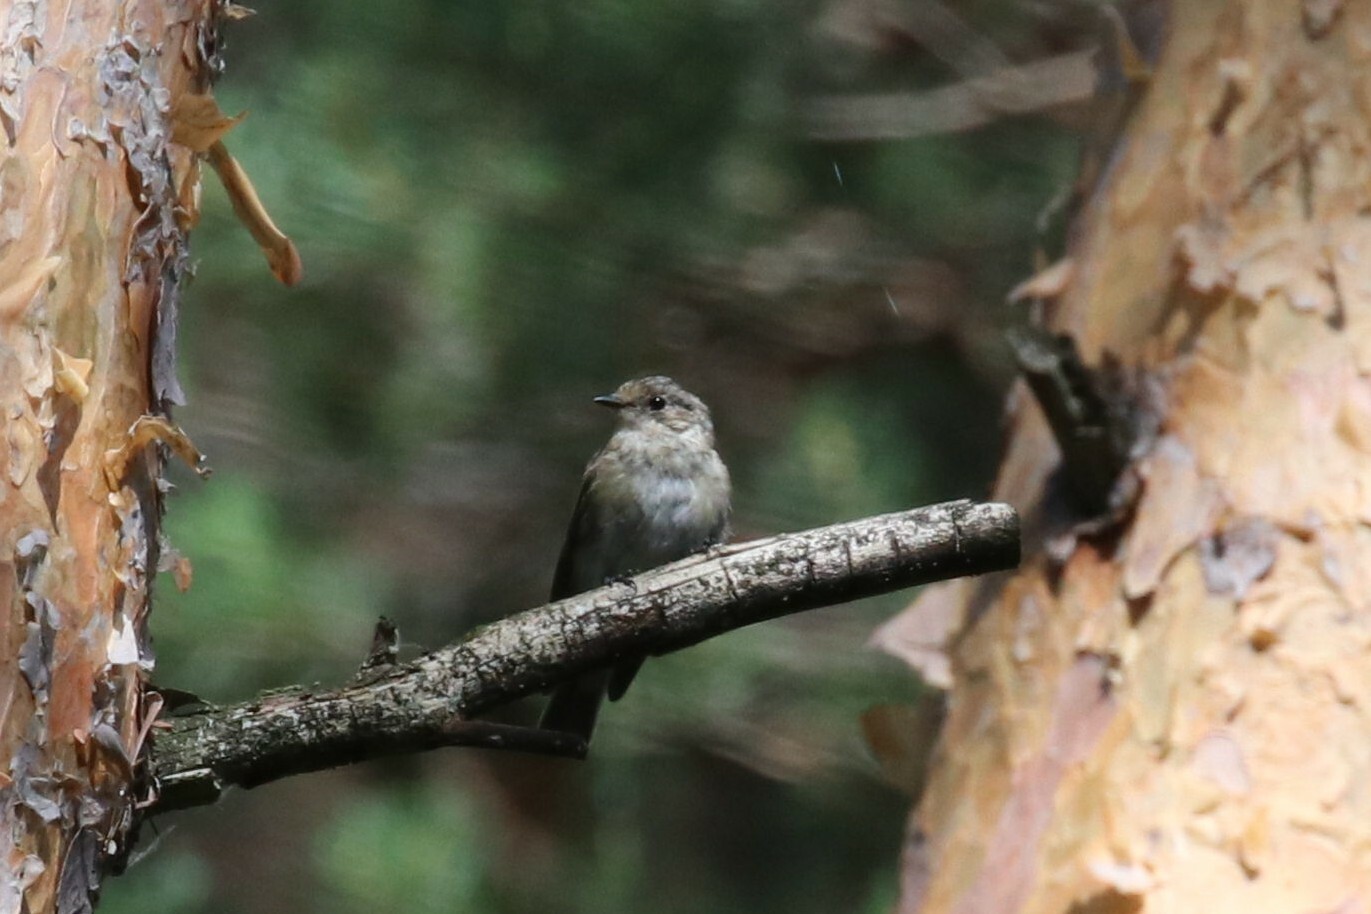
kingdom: Animalia
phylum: Chordata
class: Aves
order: Passeriformes
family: Muscicapidae
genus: Muscicapa
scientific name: Muscicapa striata
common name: Spotted flycatcher
